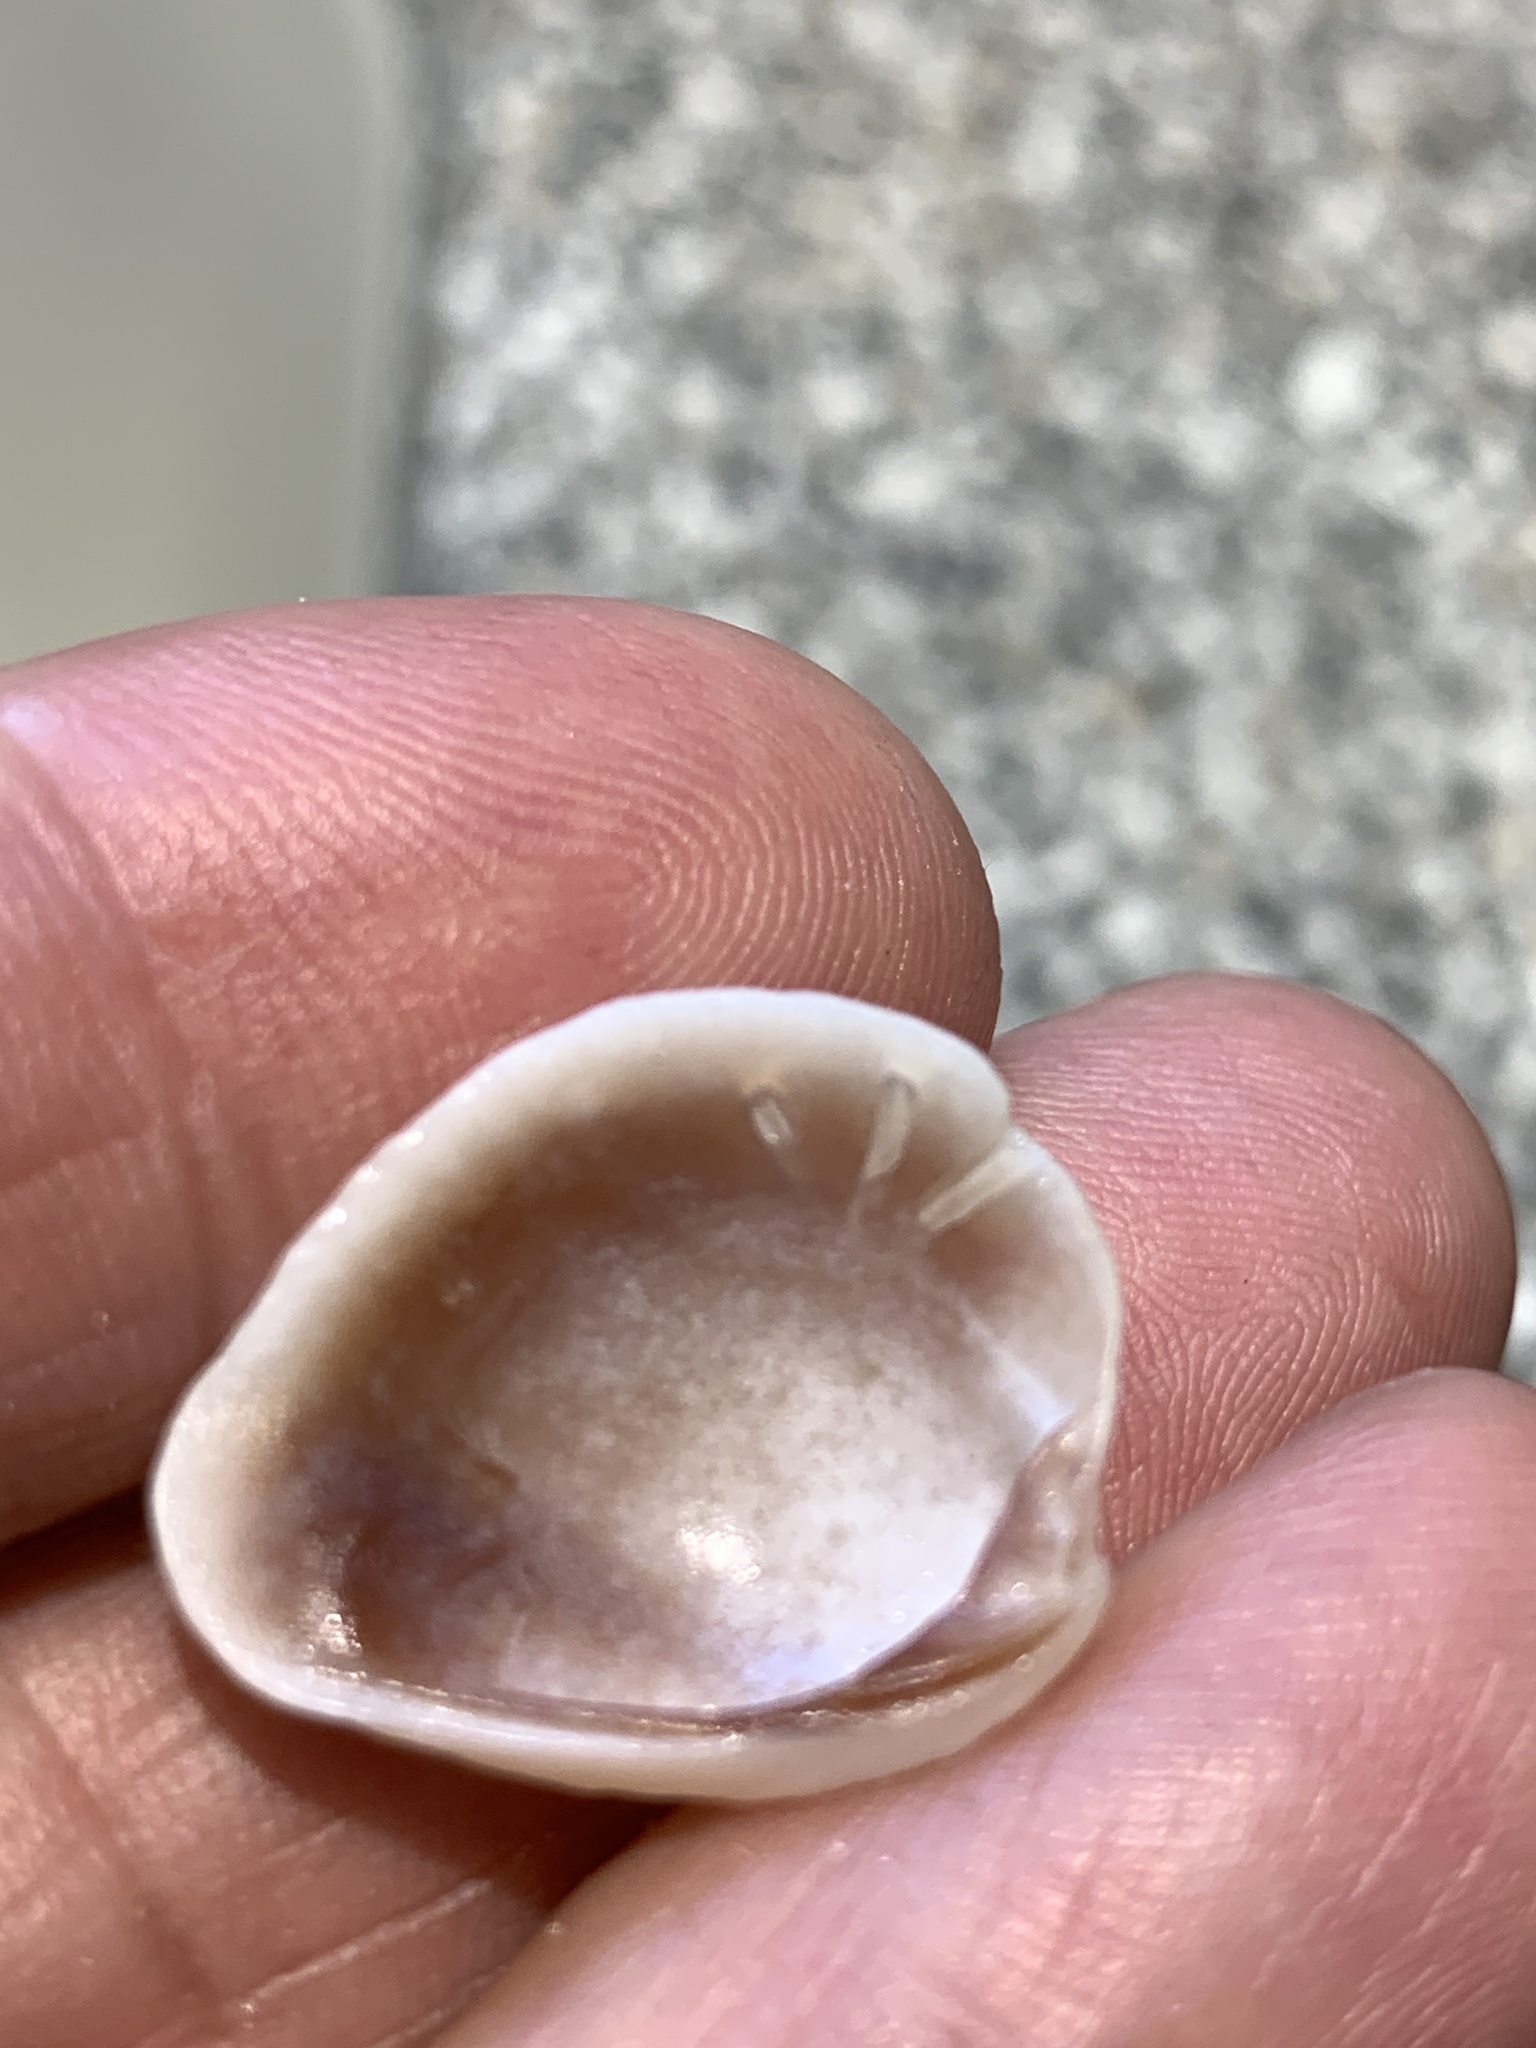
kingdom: Animalia
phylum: Mollusca
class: Bivalvia
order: Venerida
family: Veneridae
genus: Chione
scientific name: Chione elevata
